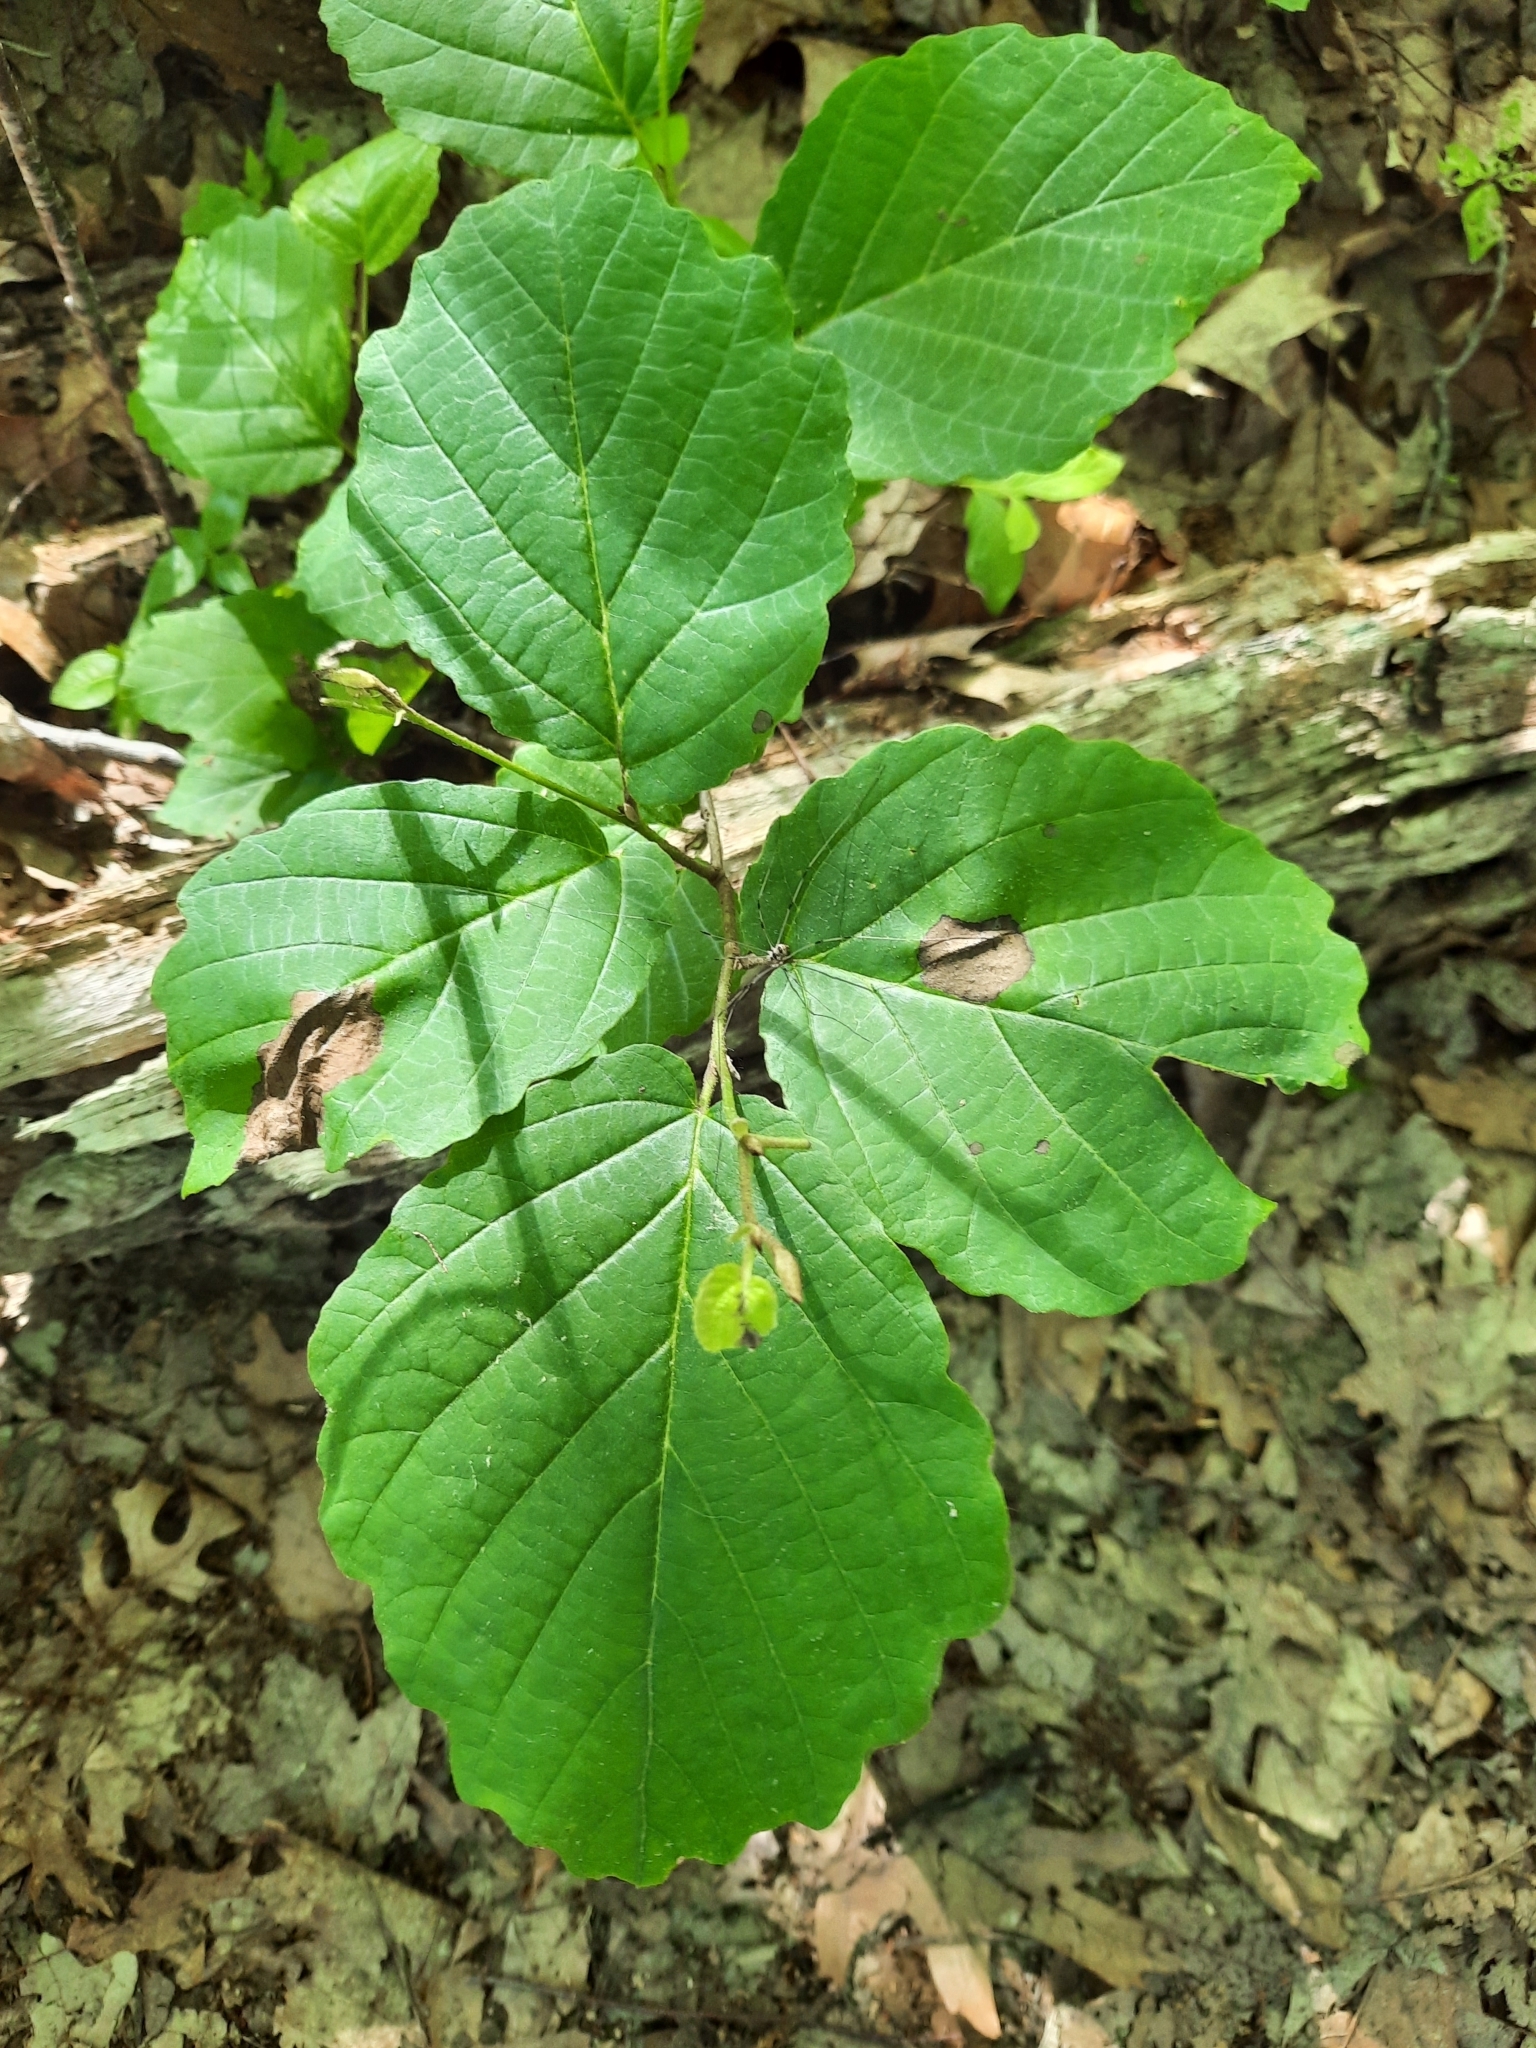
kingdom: Plantae
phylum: Tracheophyta
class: Magnoliopsida
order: Saxifragales
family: Hamamelidaceae
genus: Hamamelis
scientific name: Hamamelis virginiana
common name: Witch-hazel
